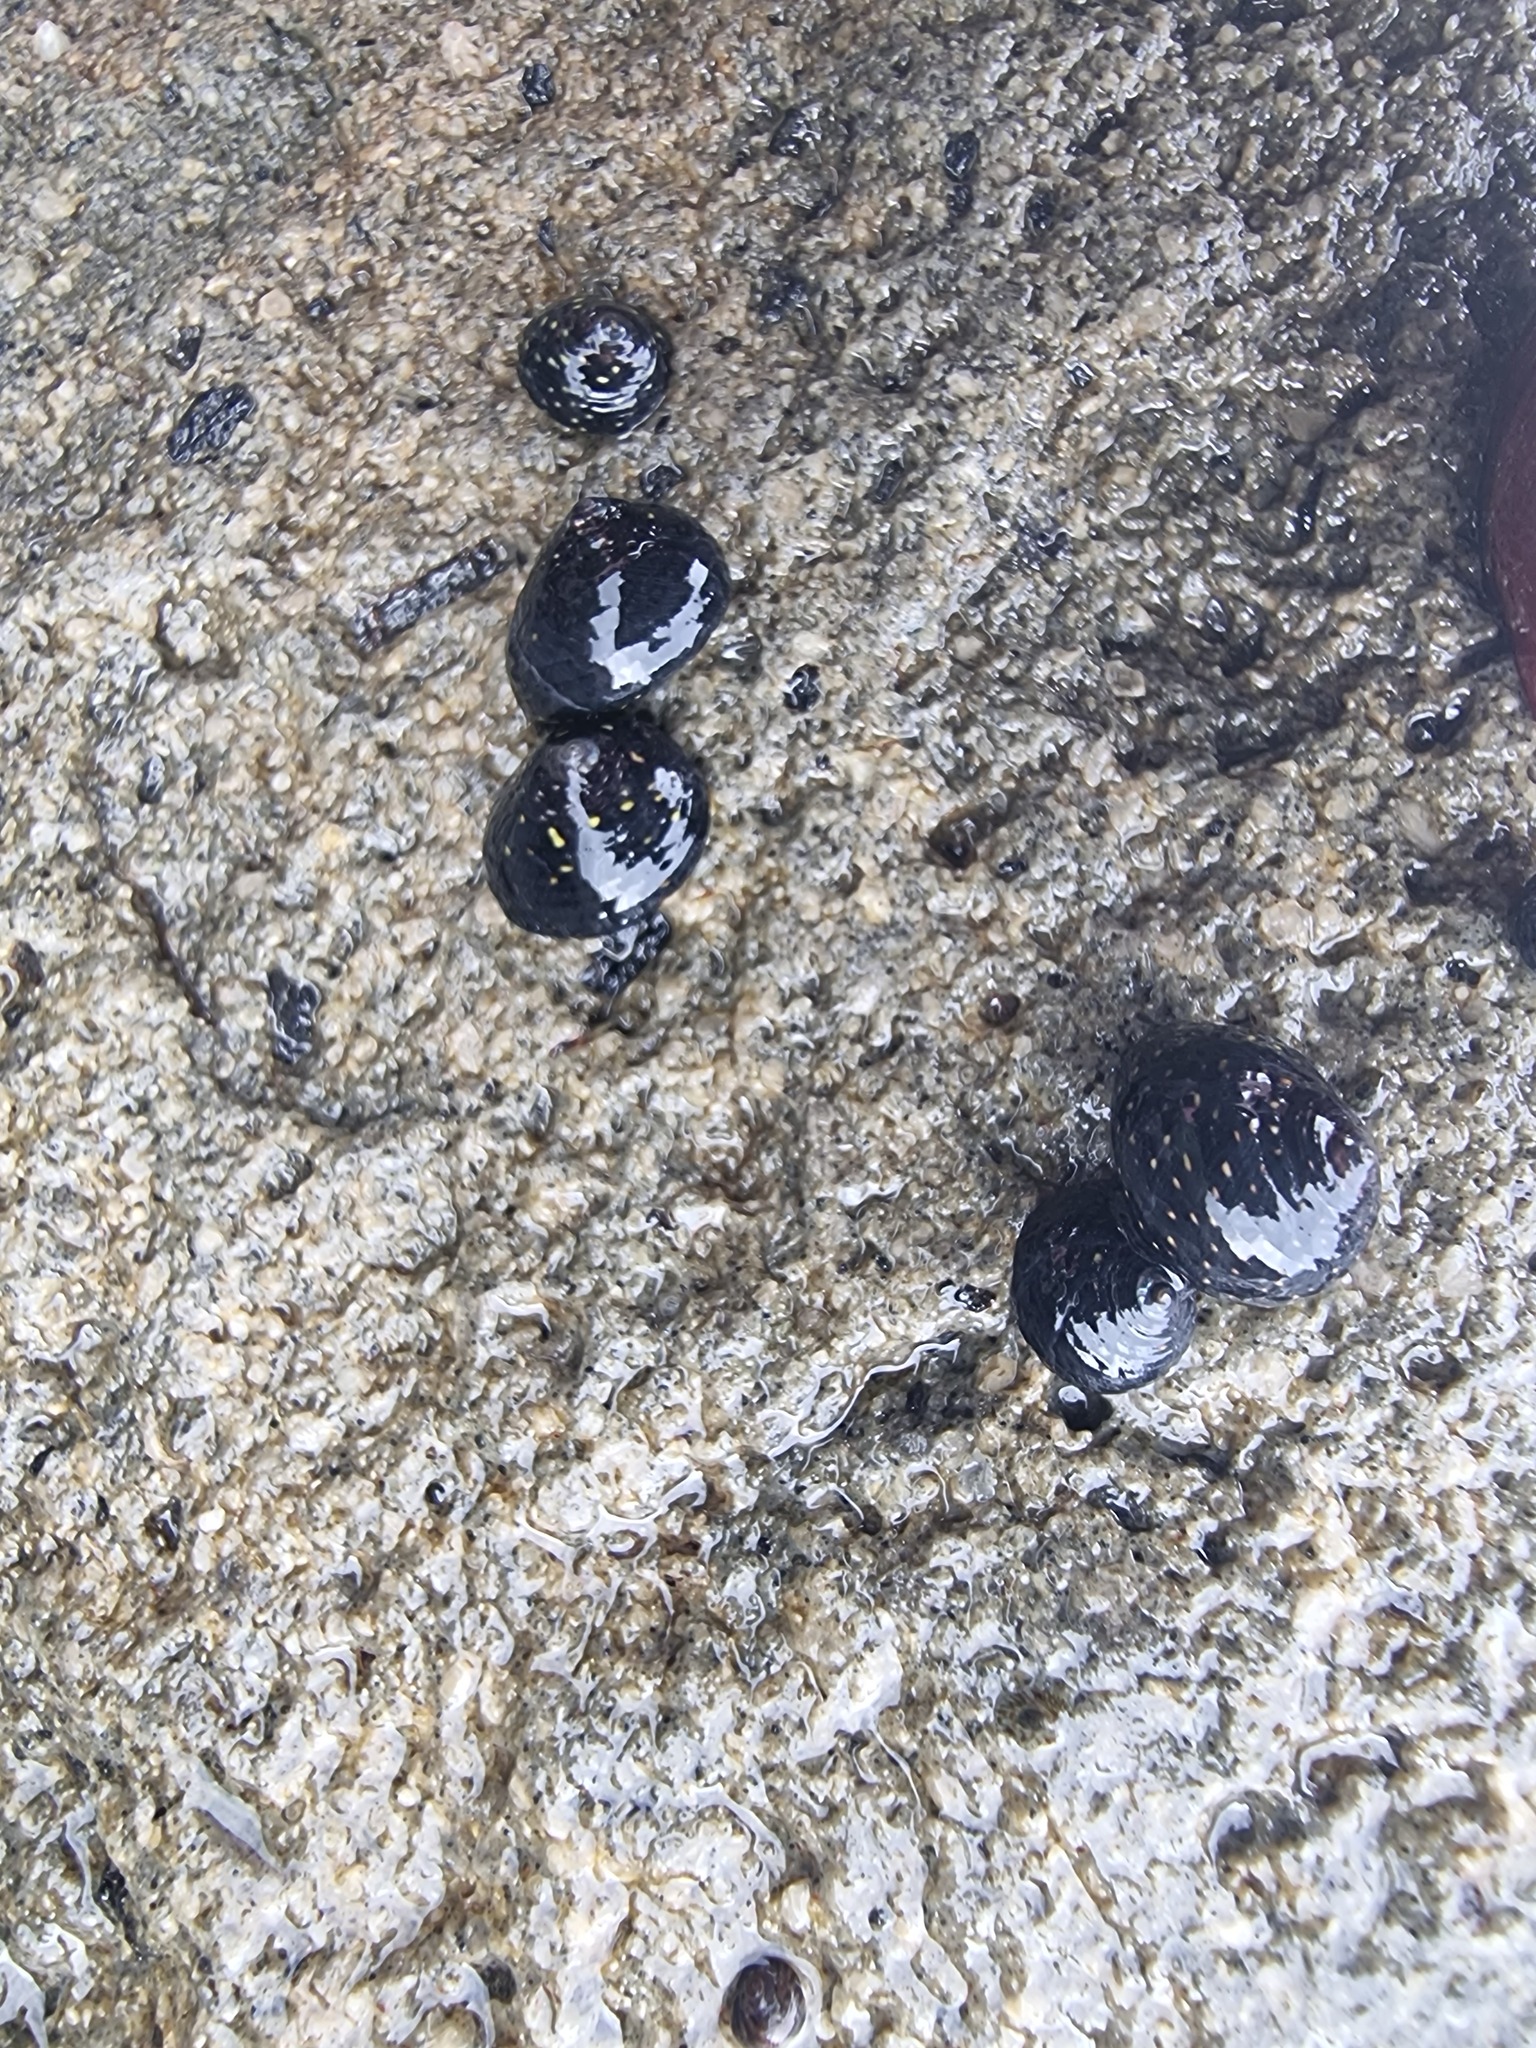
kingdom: Animalia
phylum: Mollusca
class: Gastropoda
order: Trochida
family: Trochidae
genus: Diloma
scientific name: Diloma aridum
